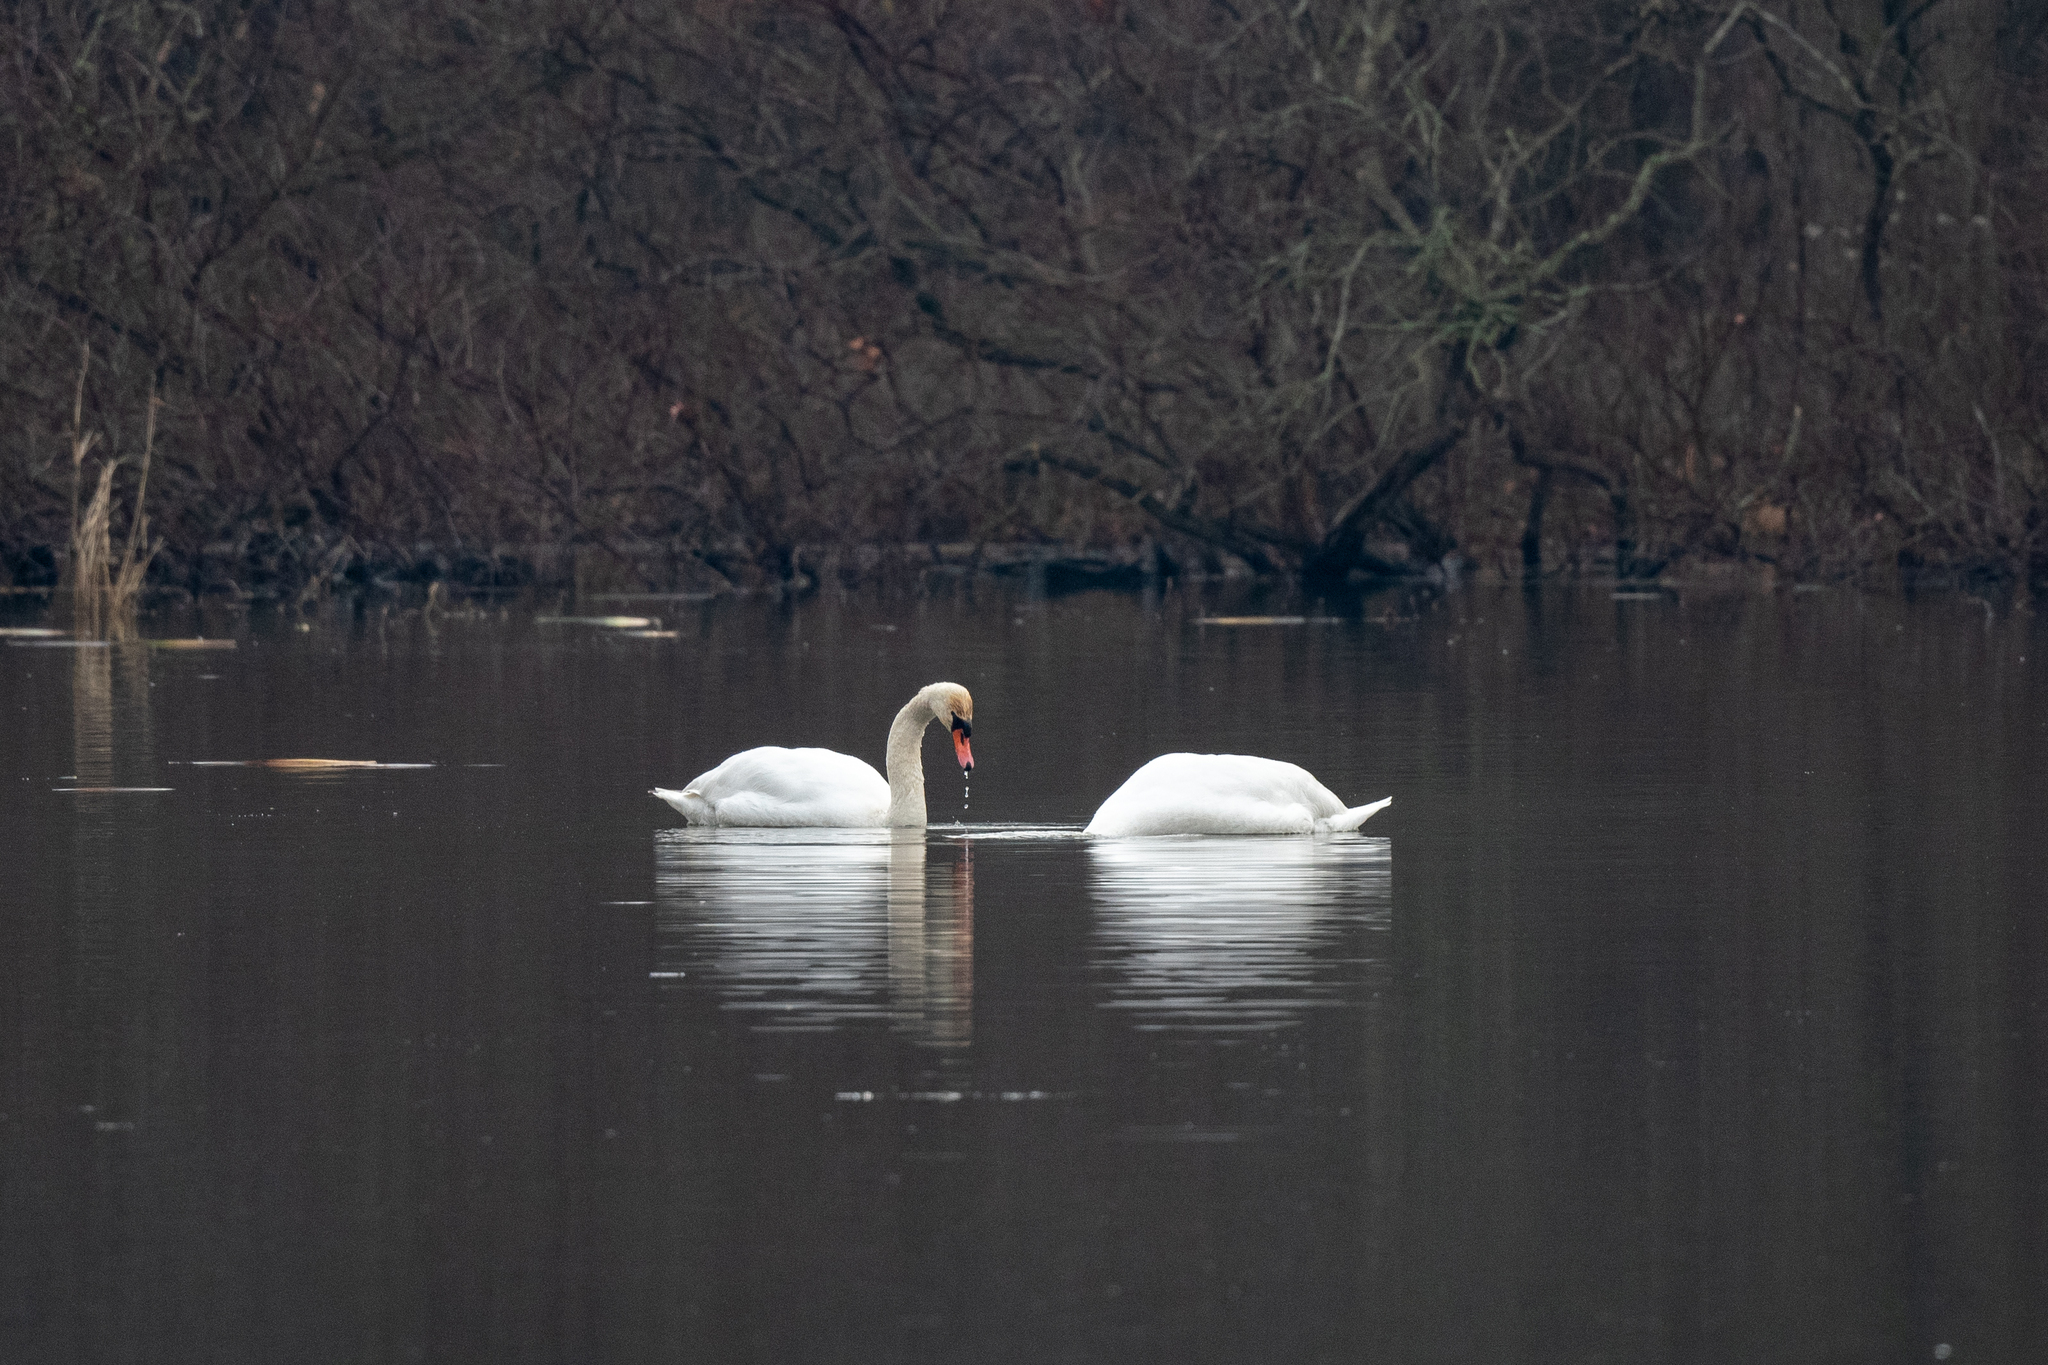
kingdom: Animalia
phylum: Chordata
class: Aves
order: Anseriformes
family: Anatidae
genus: Cygnus
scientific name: Cygnus olor
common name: Mute swan
